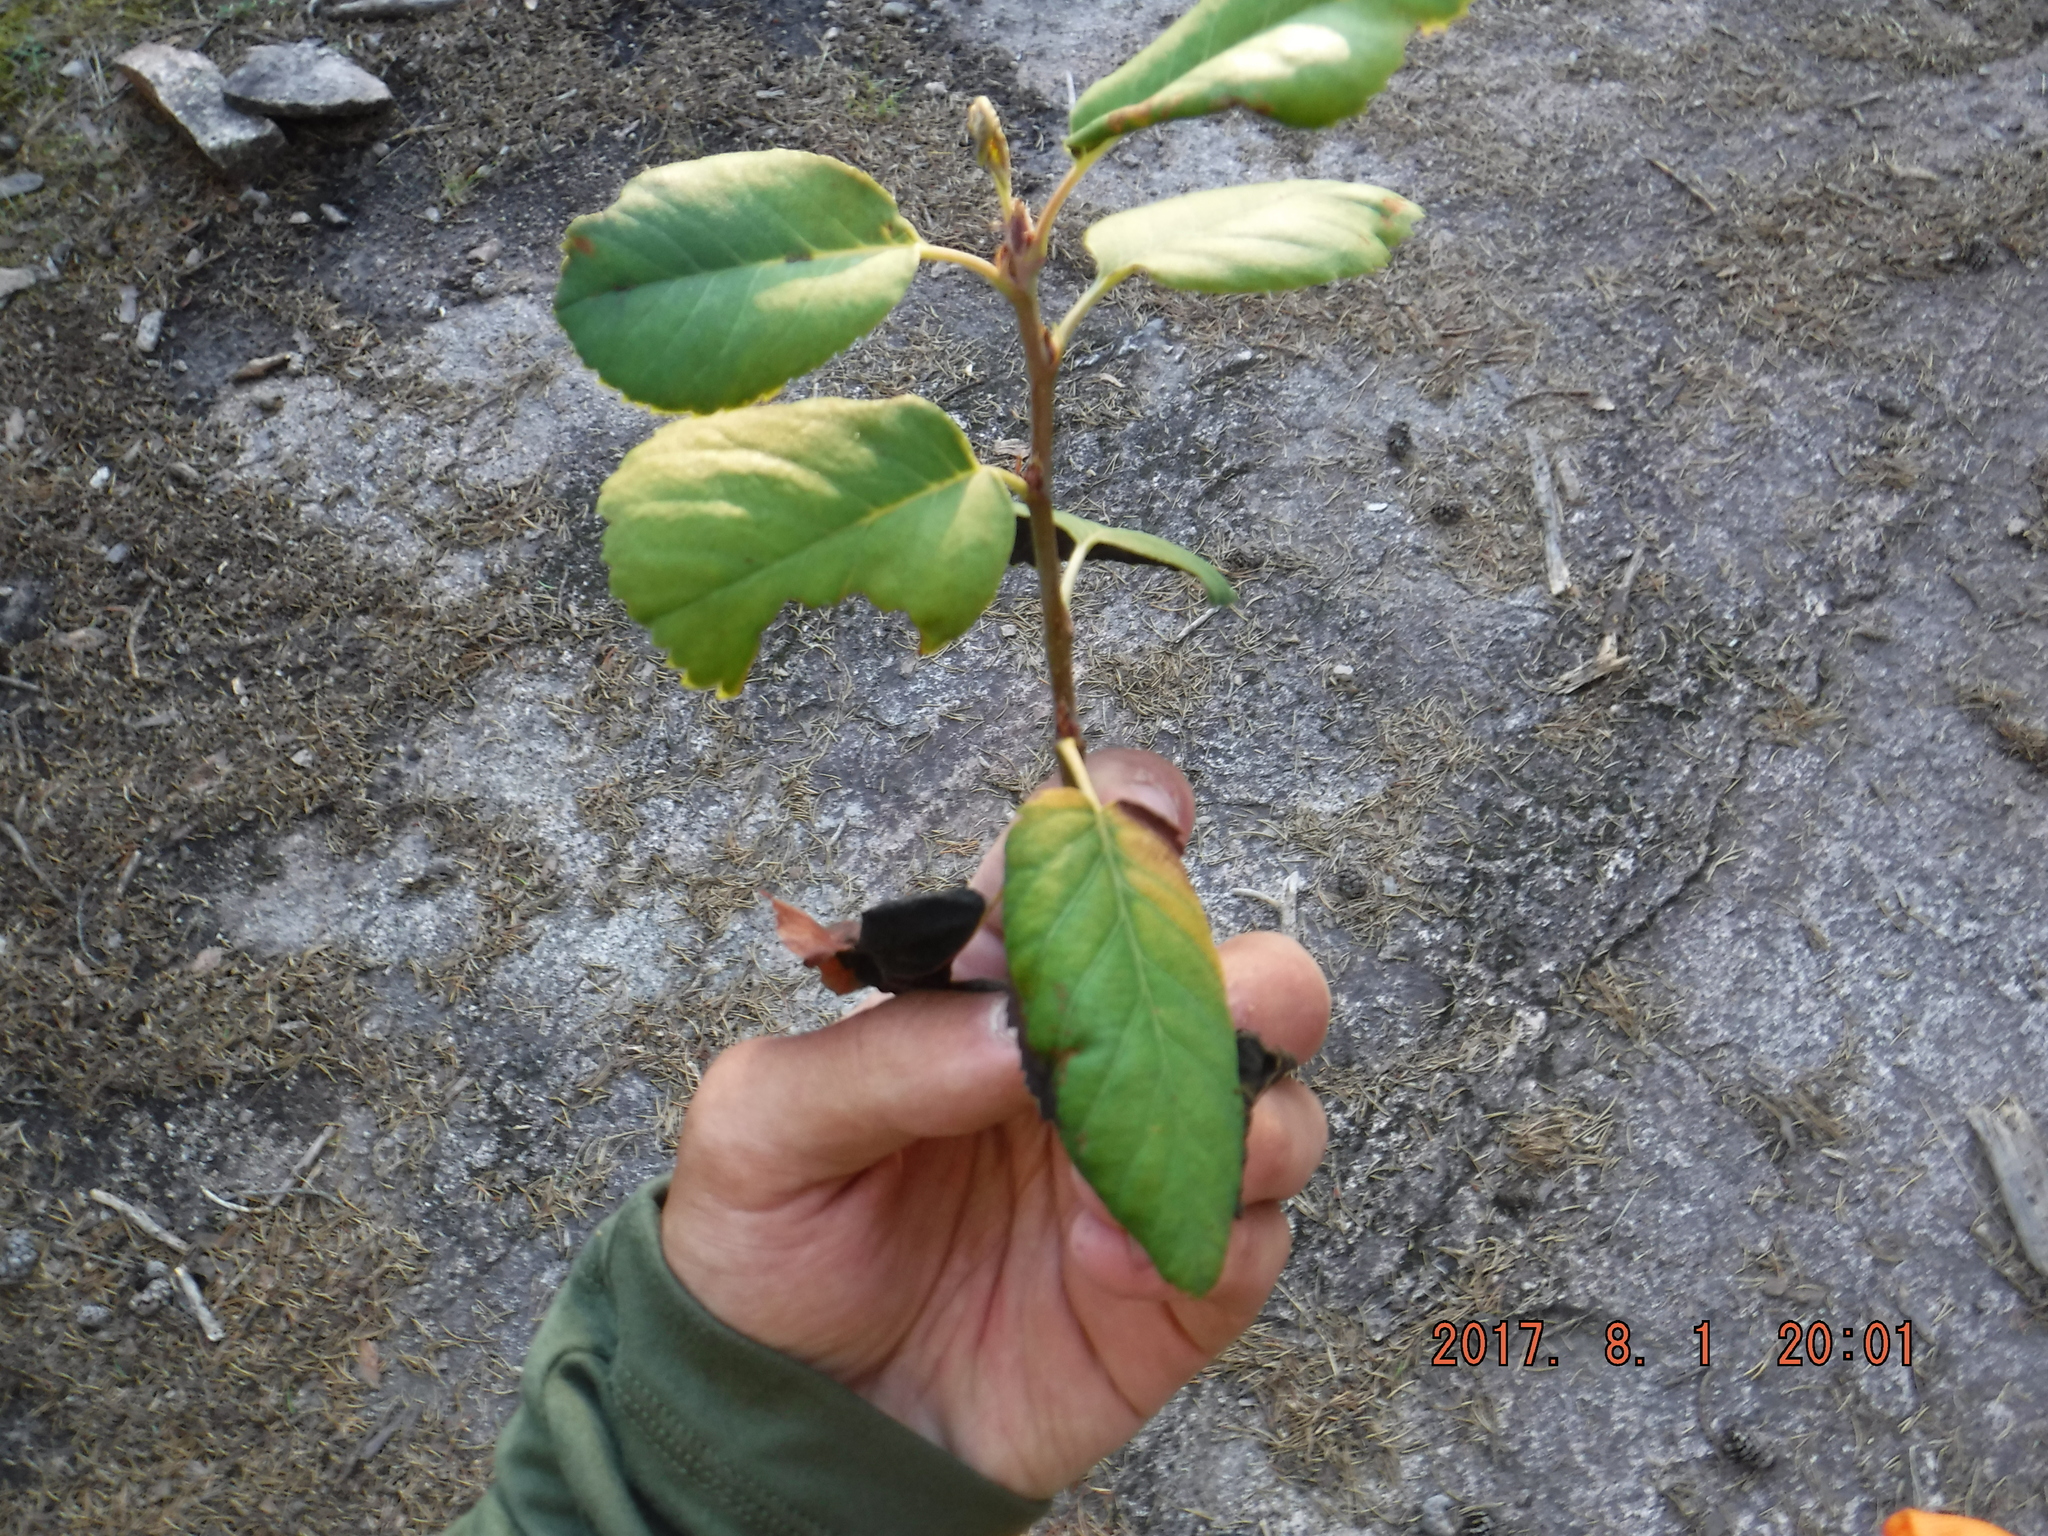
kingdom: Fungi
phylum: Ascomycota
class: Dothideomycetes
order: Venturiales
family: Venturiaceae
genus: Apiosporina
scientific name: Apiosporina collinsii
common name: Black leaf
